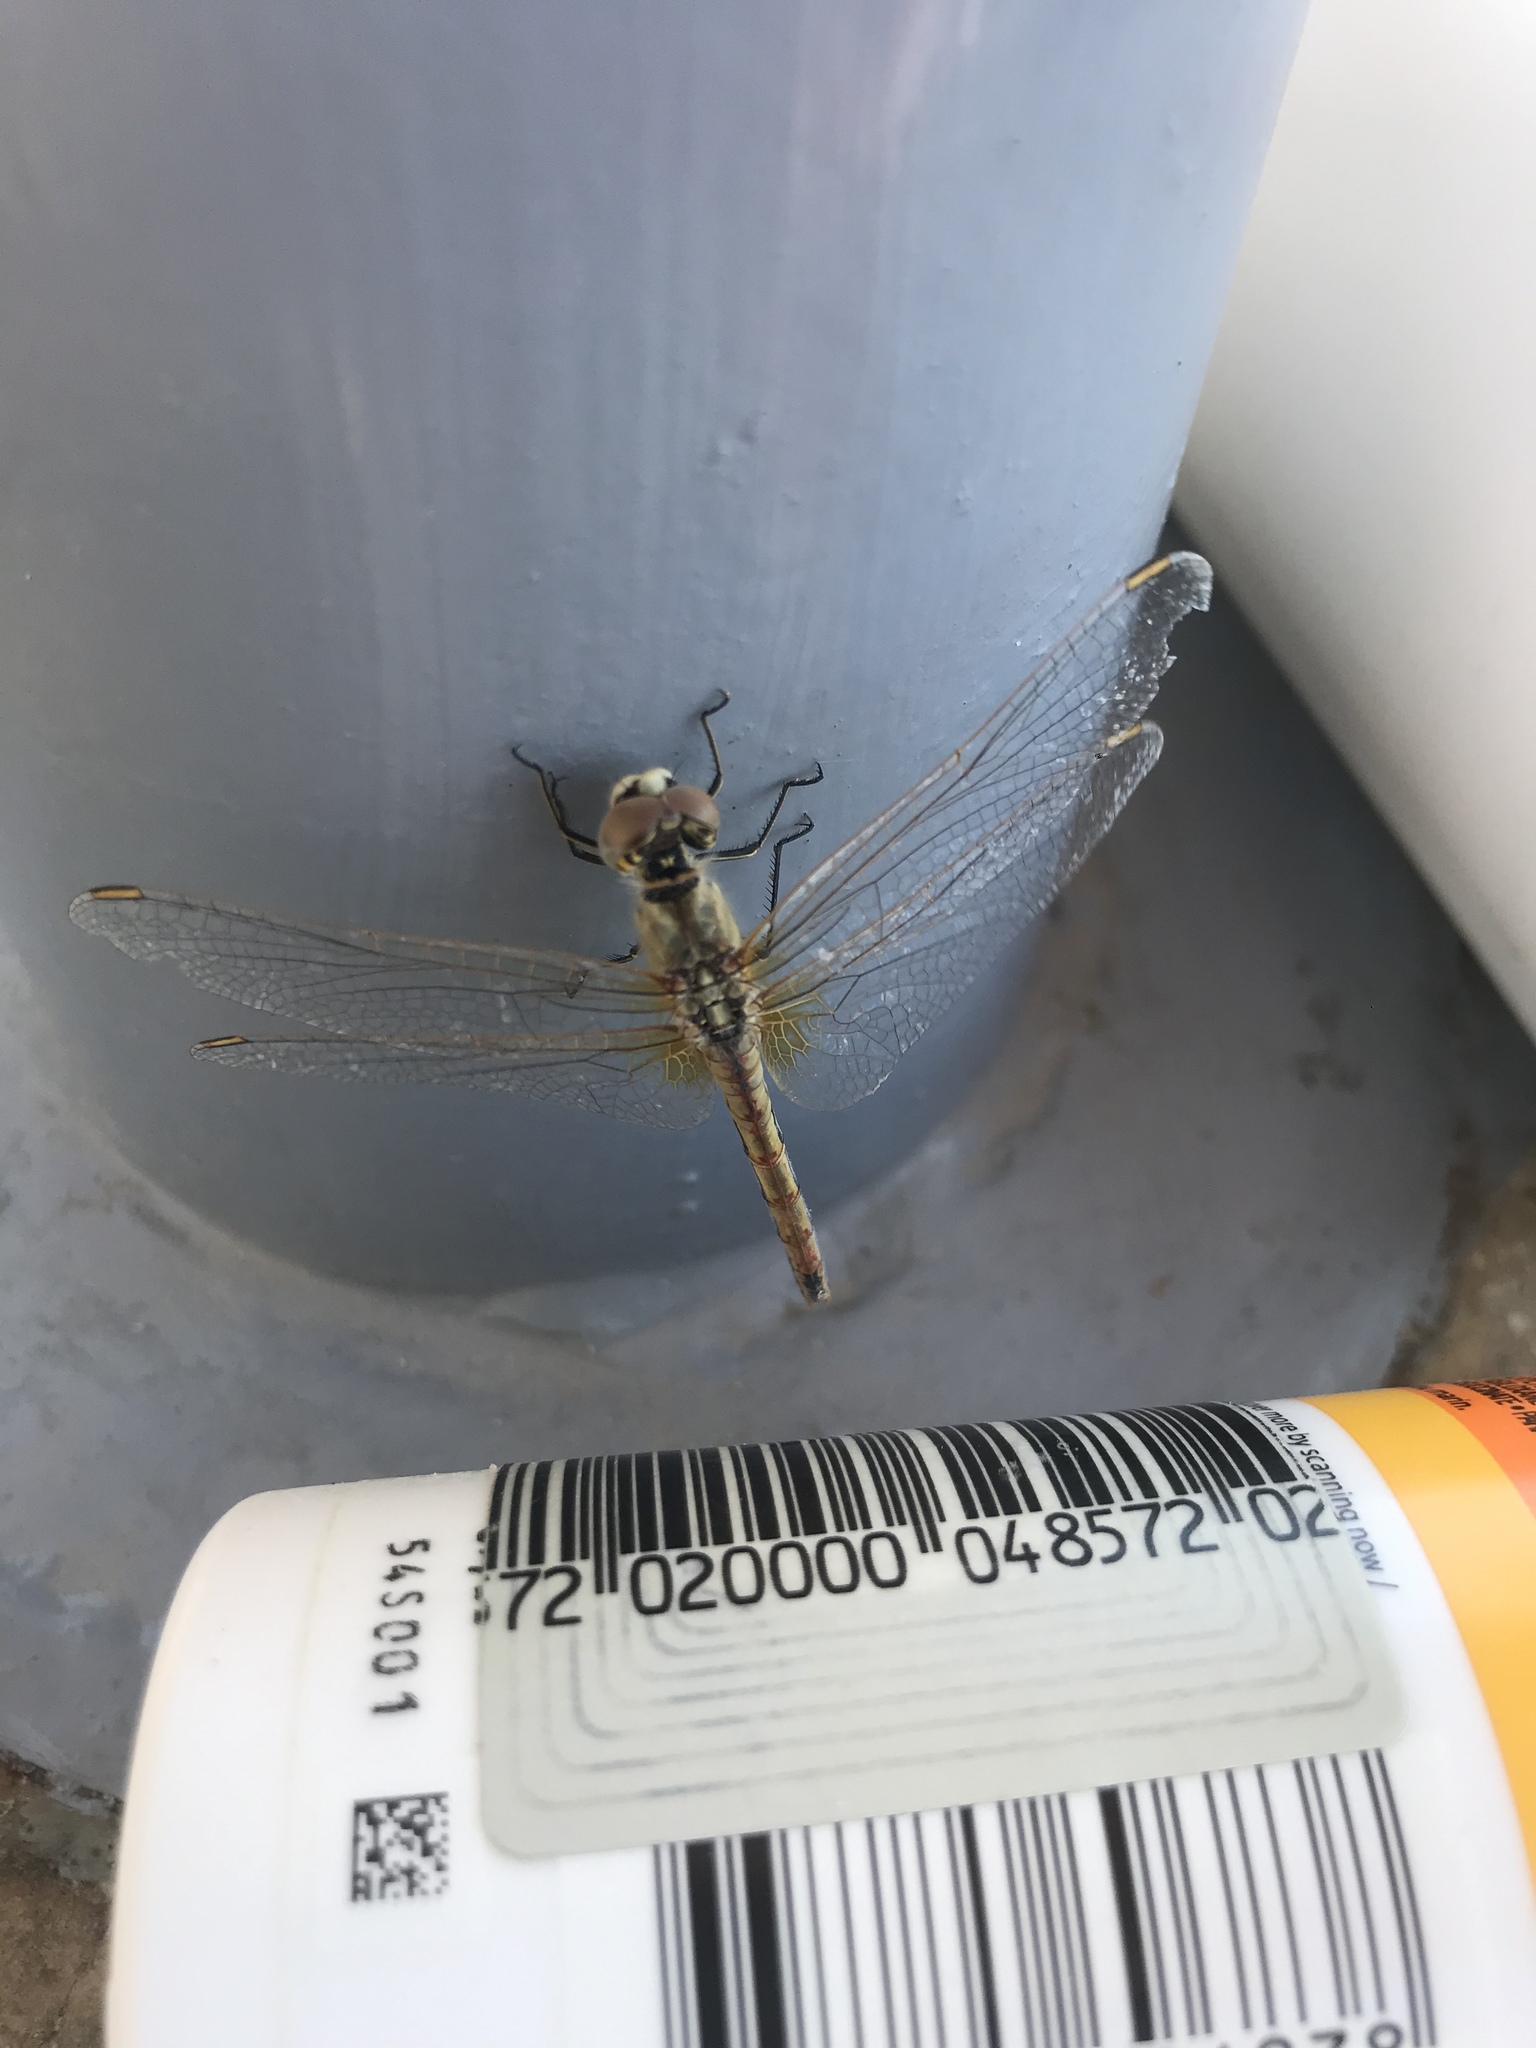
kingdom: Animalia
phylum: Arthropoda
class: Insecta
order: Odonata
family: Libellulidae
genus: Sympetrum
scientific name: Sympetrum fonscolombii
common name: Red-veined darter
